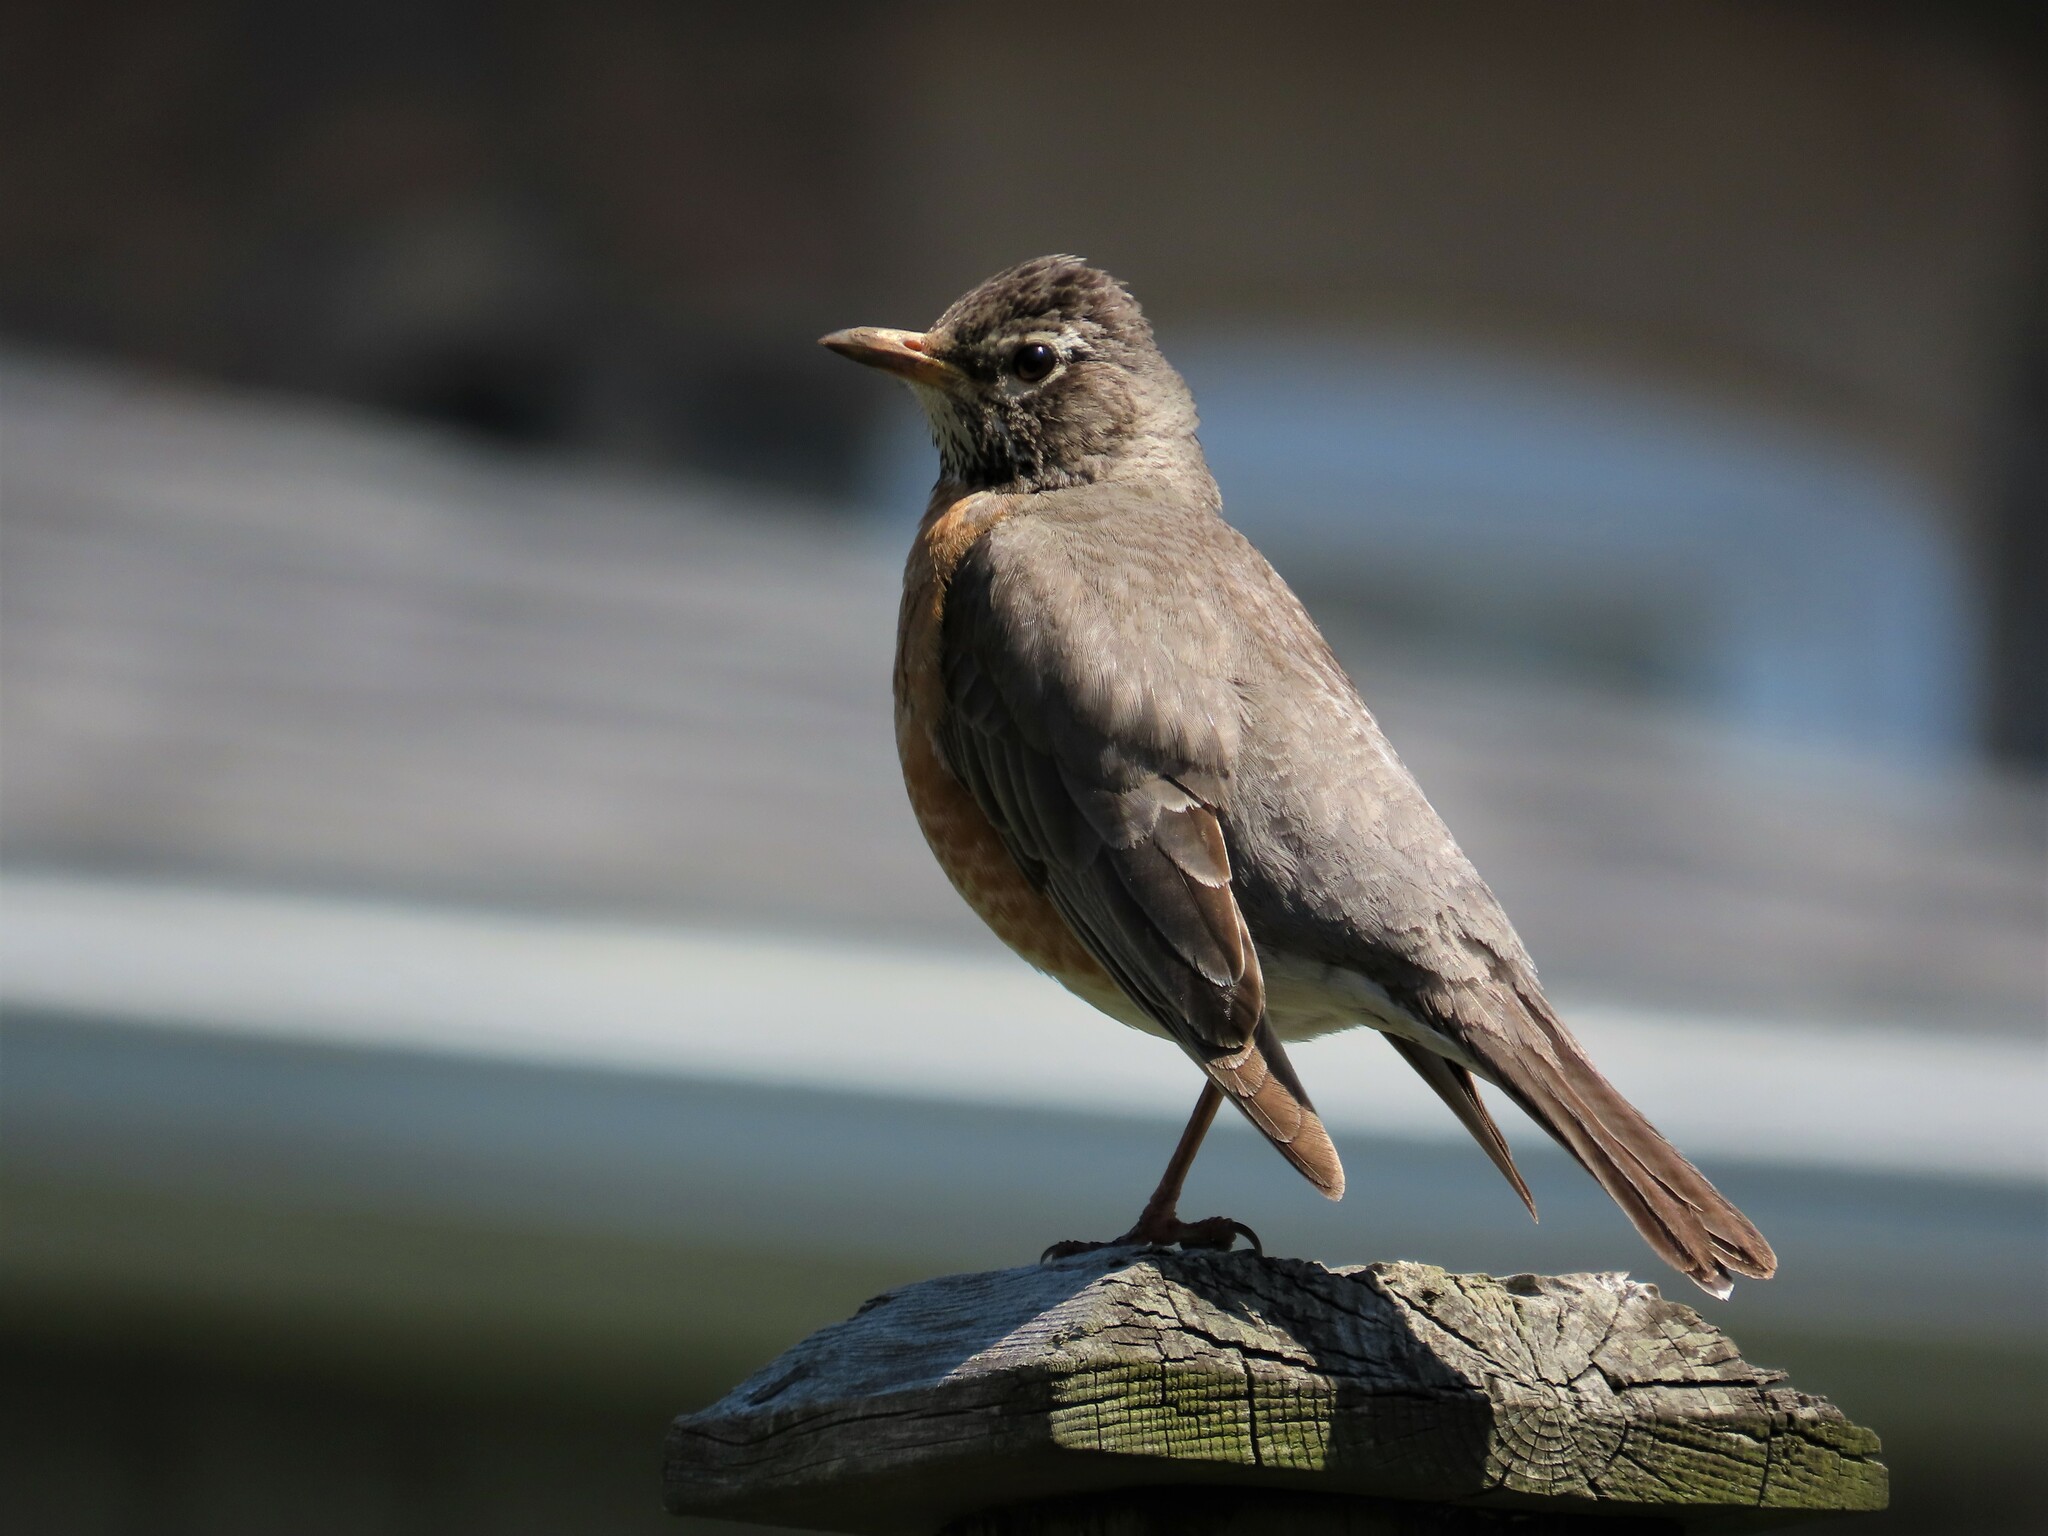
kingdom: Animalia
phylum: Chordata
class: Aves
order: Passeriformes
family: Turdidae
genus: Turdus
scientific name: Turdus migratorius
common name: American robin
